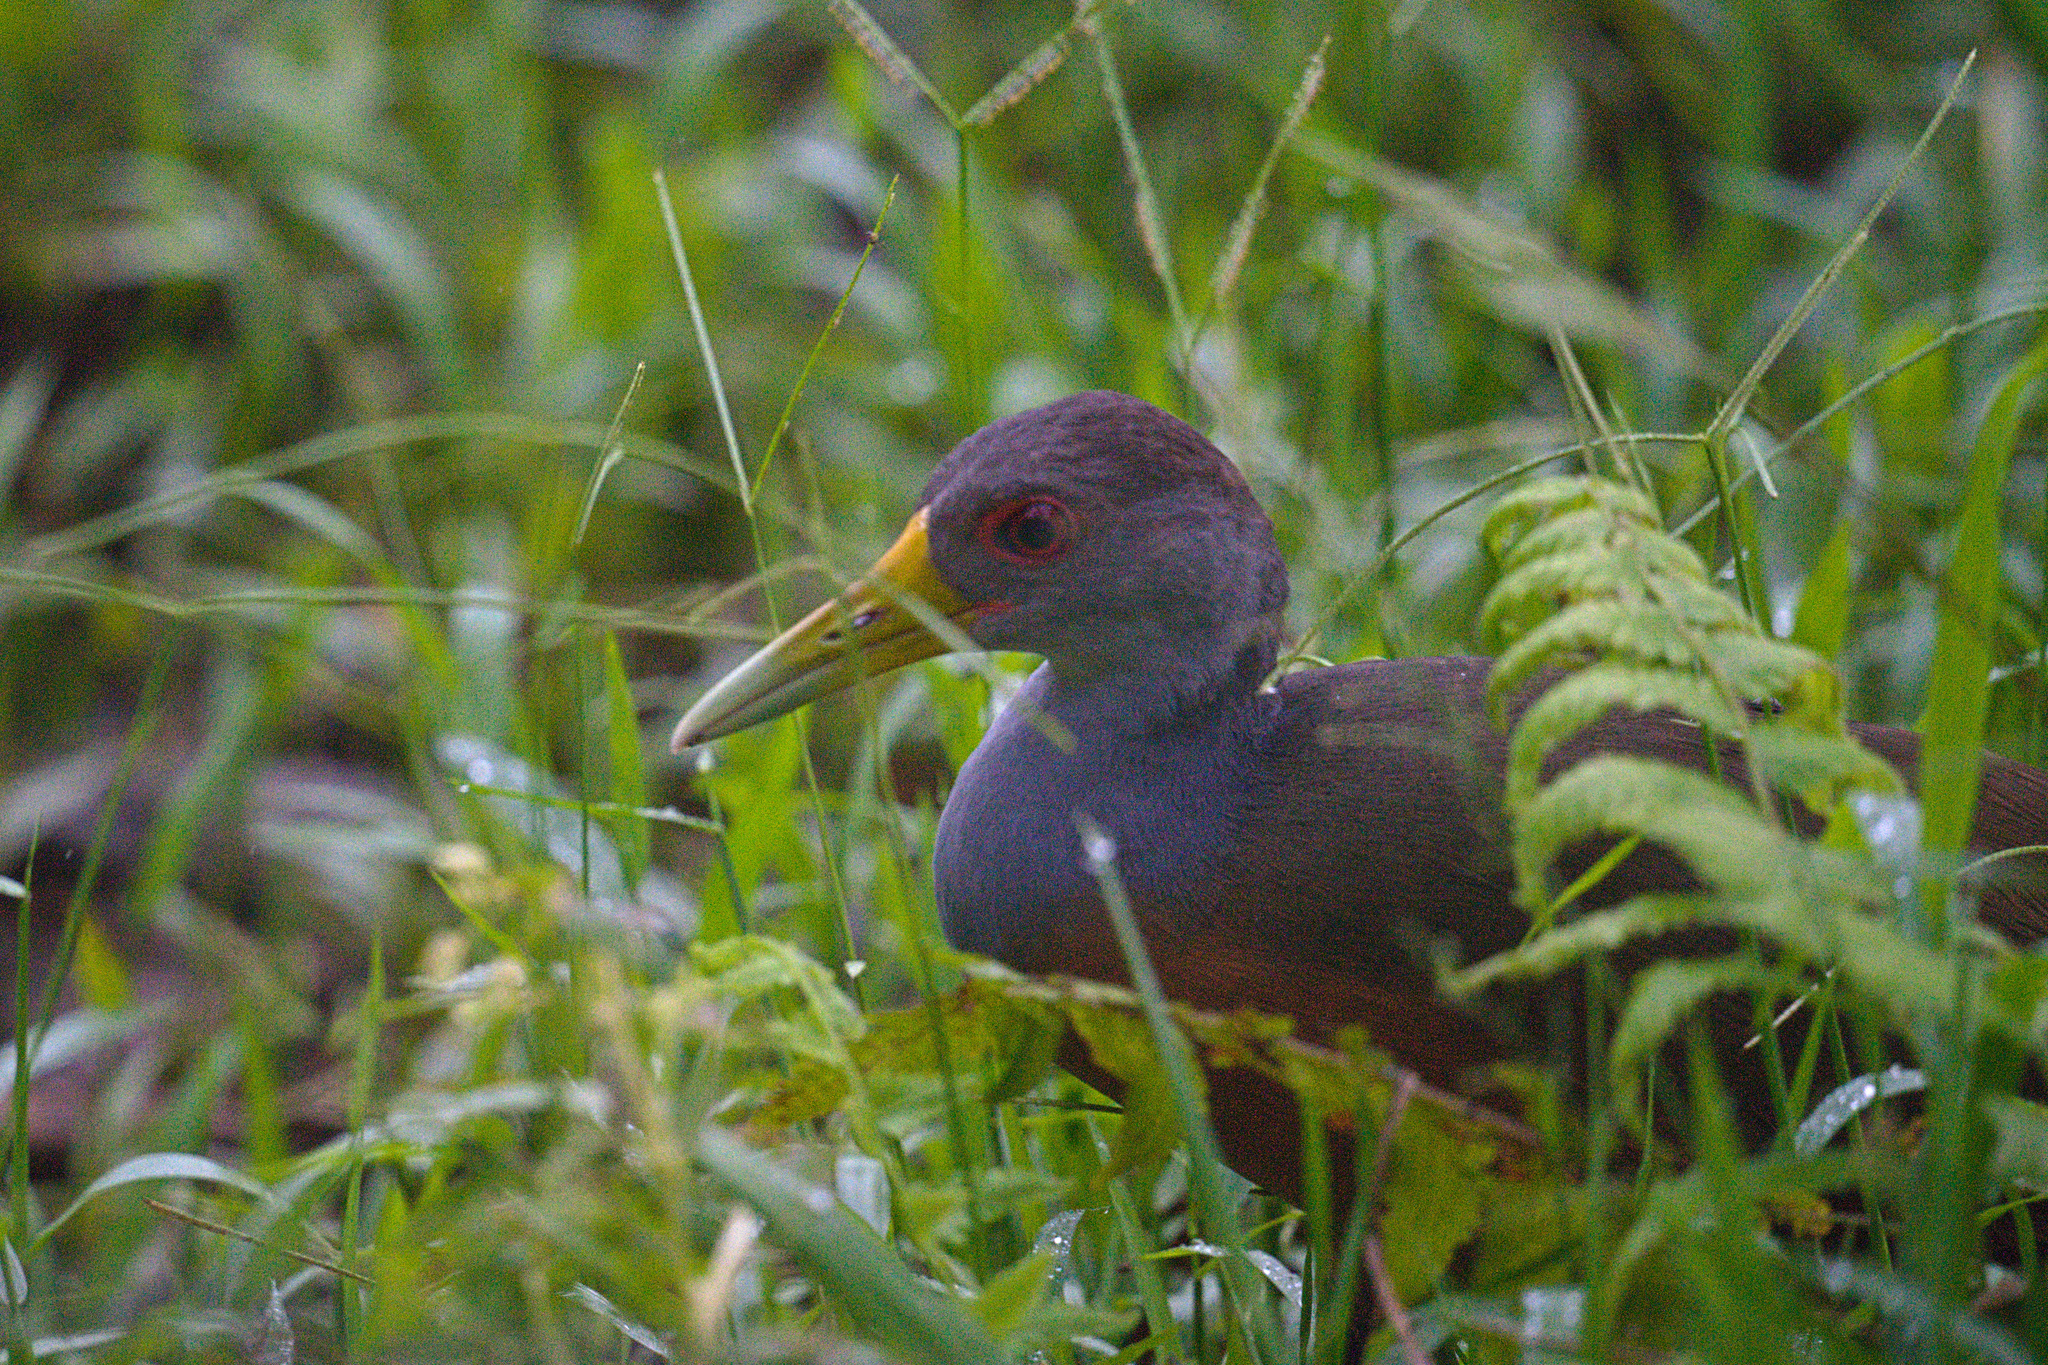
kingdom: Animalia
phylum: Chordata
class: Aves
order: Gruiformes
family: Rallidae
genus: Aramides
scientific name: Aramides cajanea
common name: Gray-necked wood-rail
